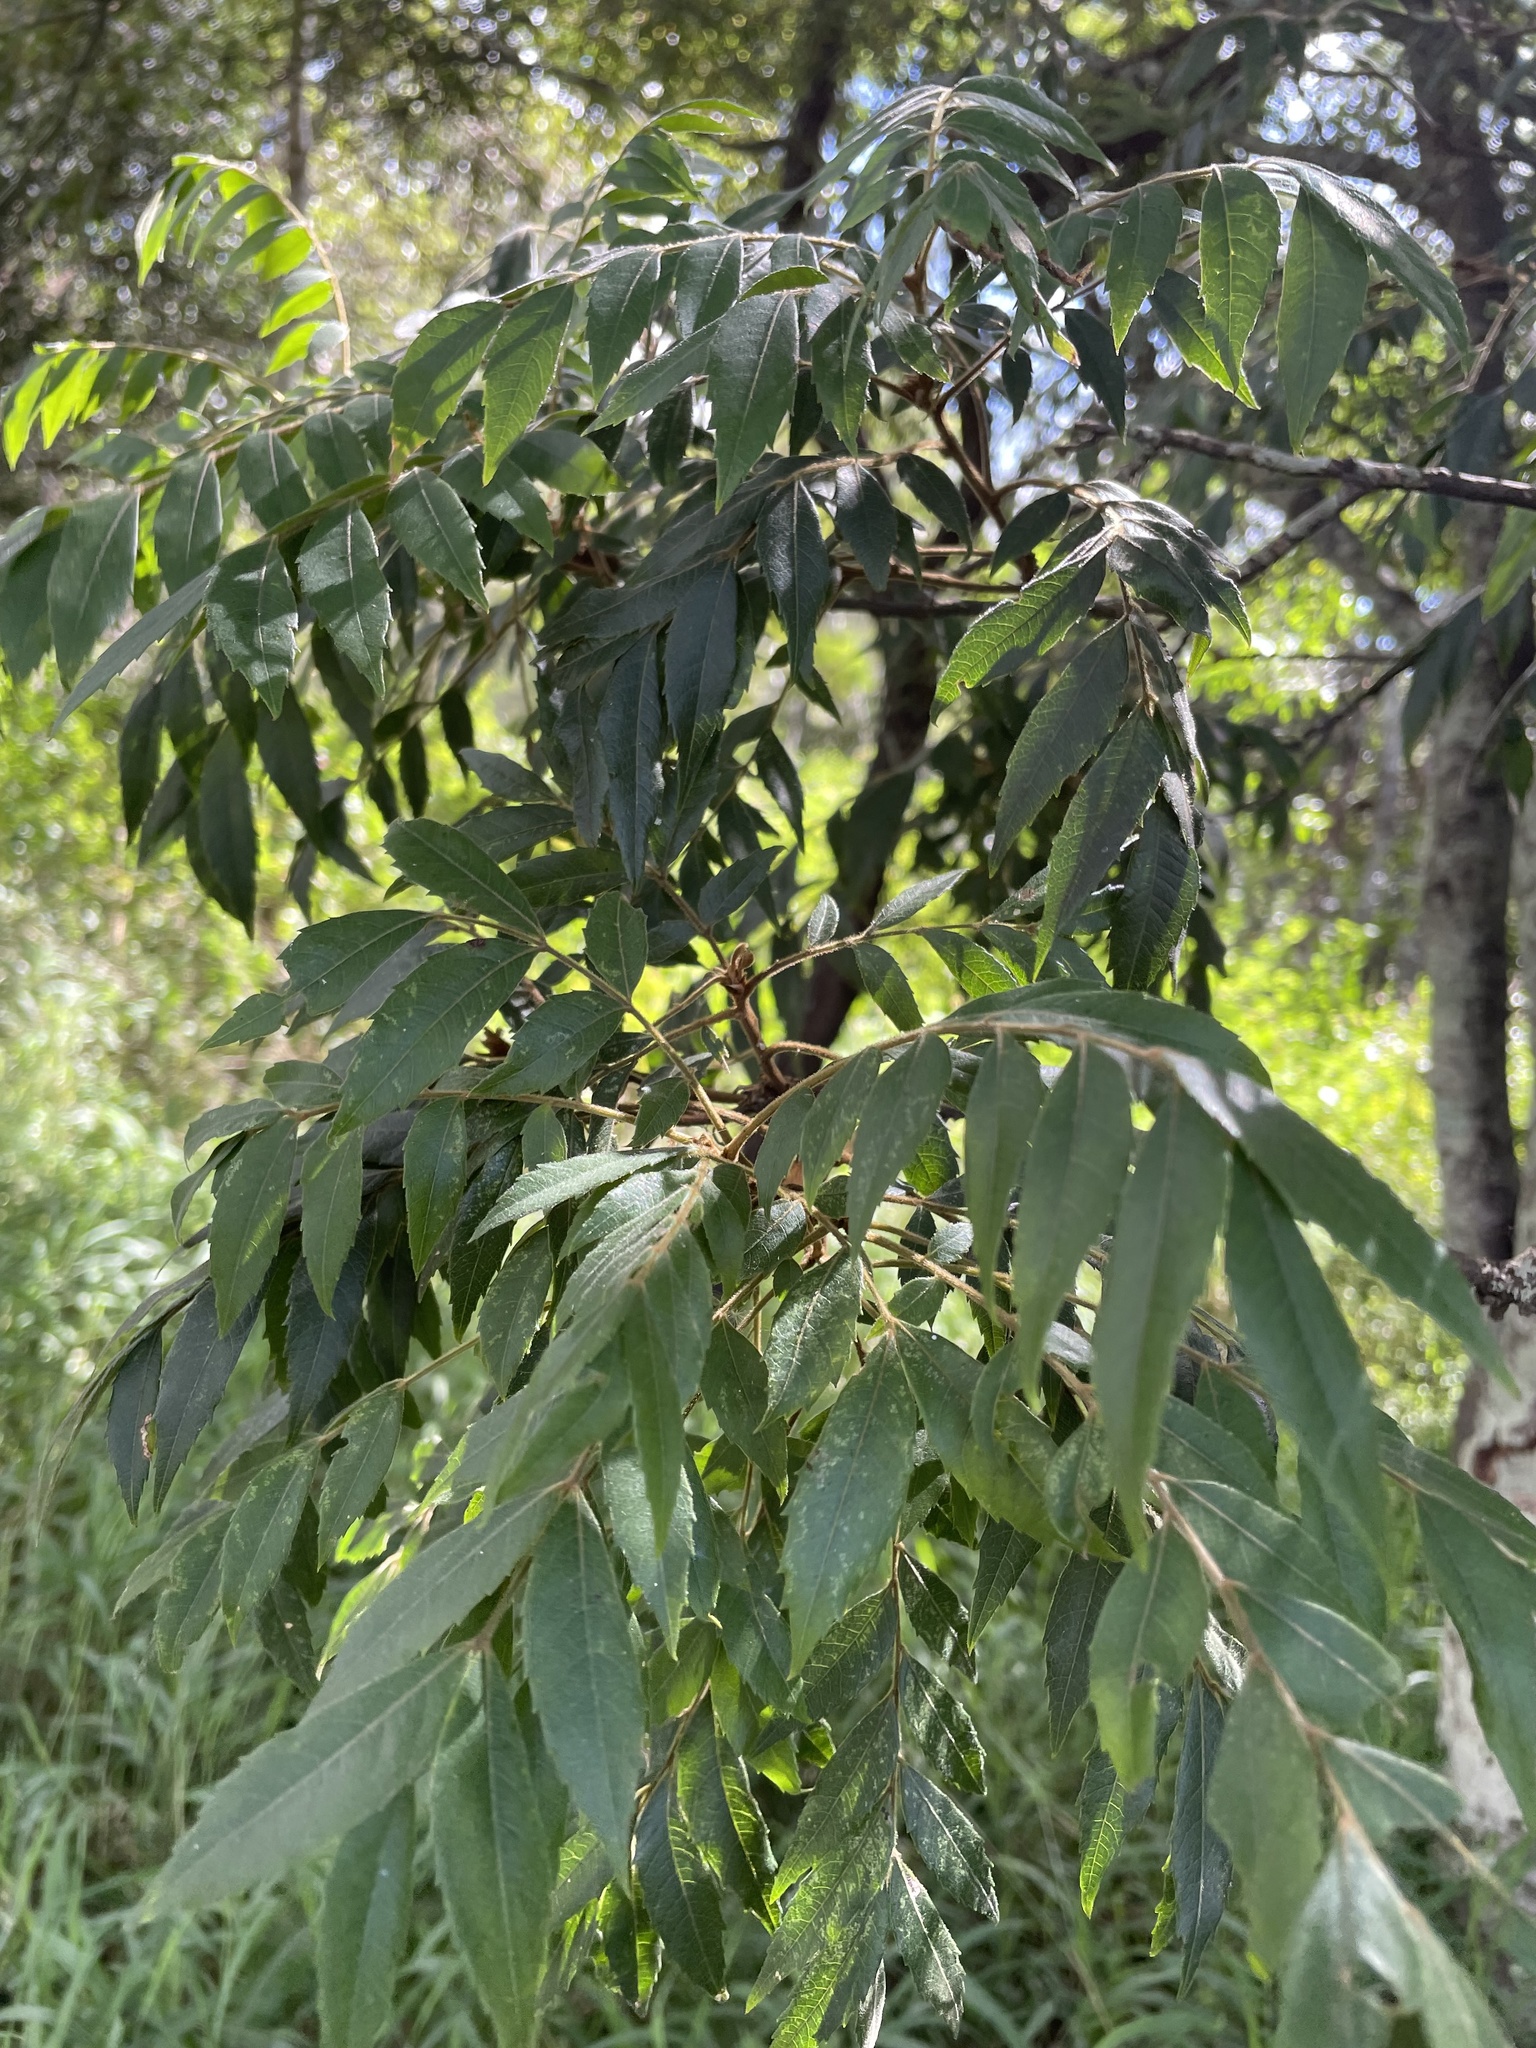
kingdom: Plantae
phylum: Tracheophyta
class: Magnoliopsida
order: Sapindales
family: Sapindaceae
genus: Jagera
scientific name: Jagera pseudorhus
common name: Fern-leaf-tamarind
